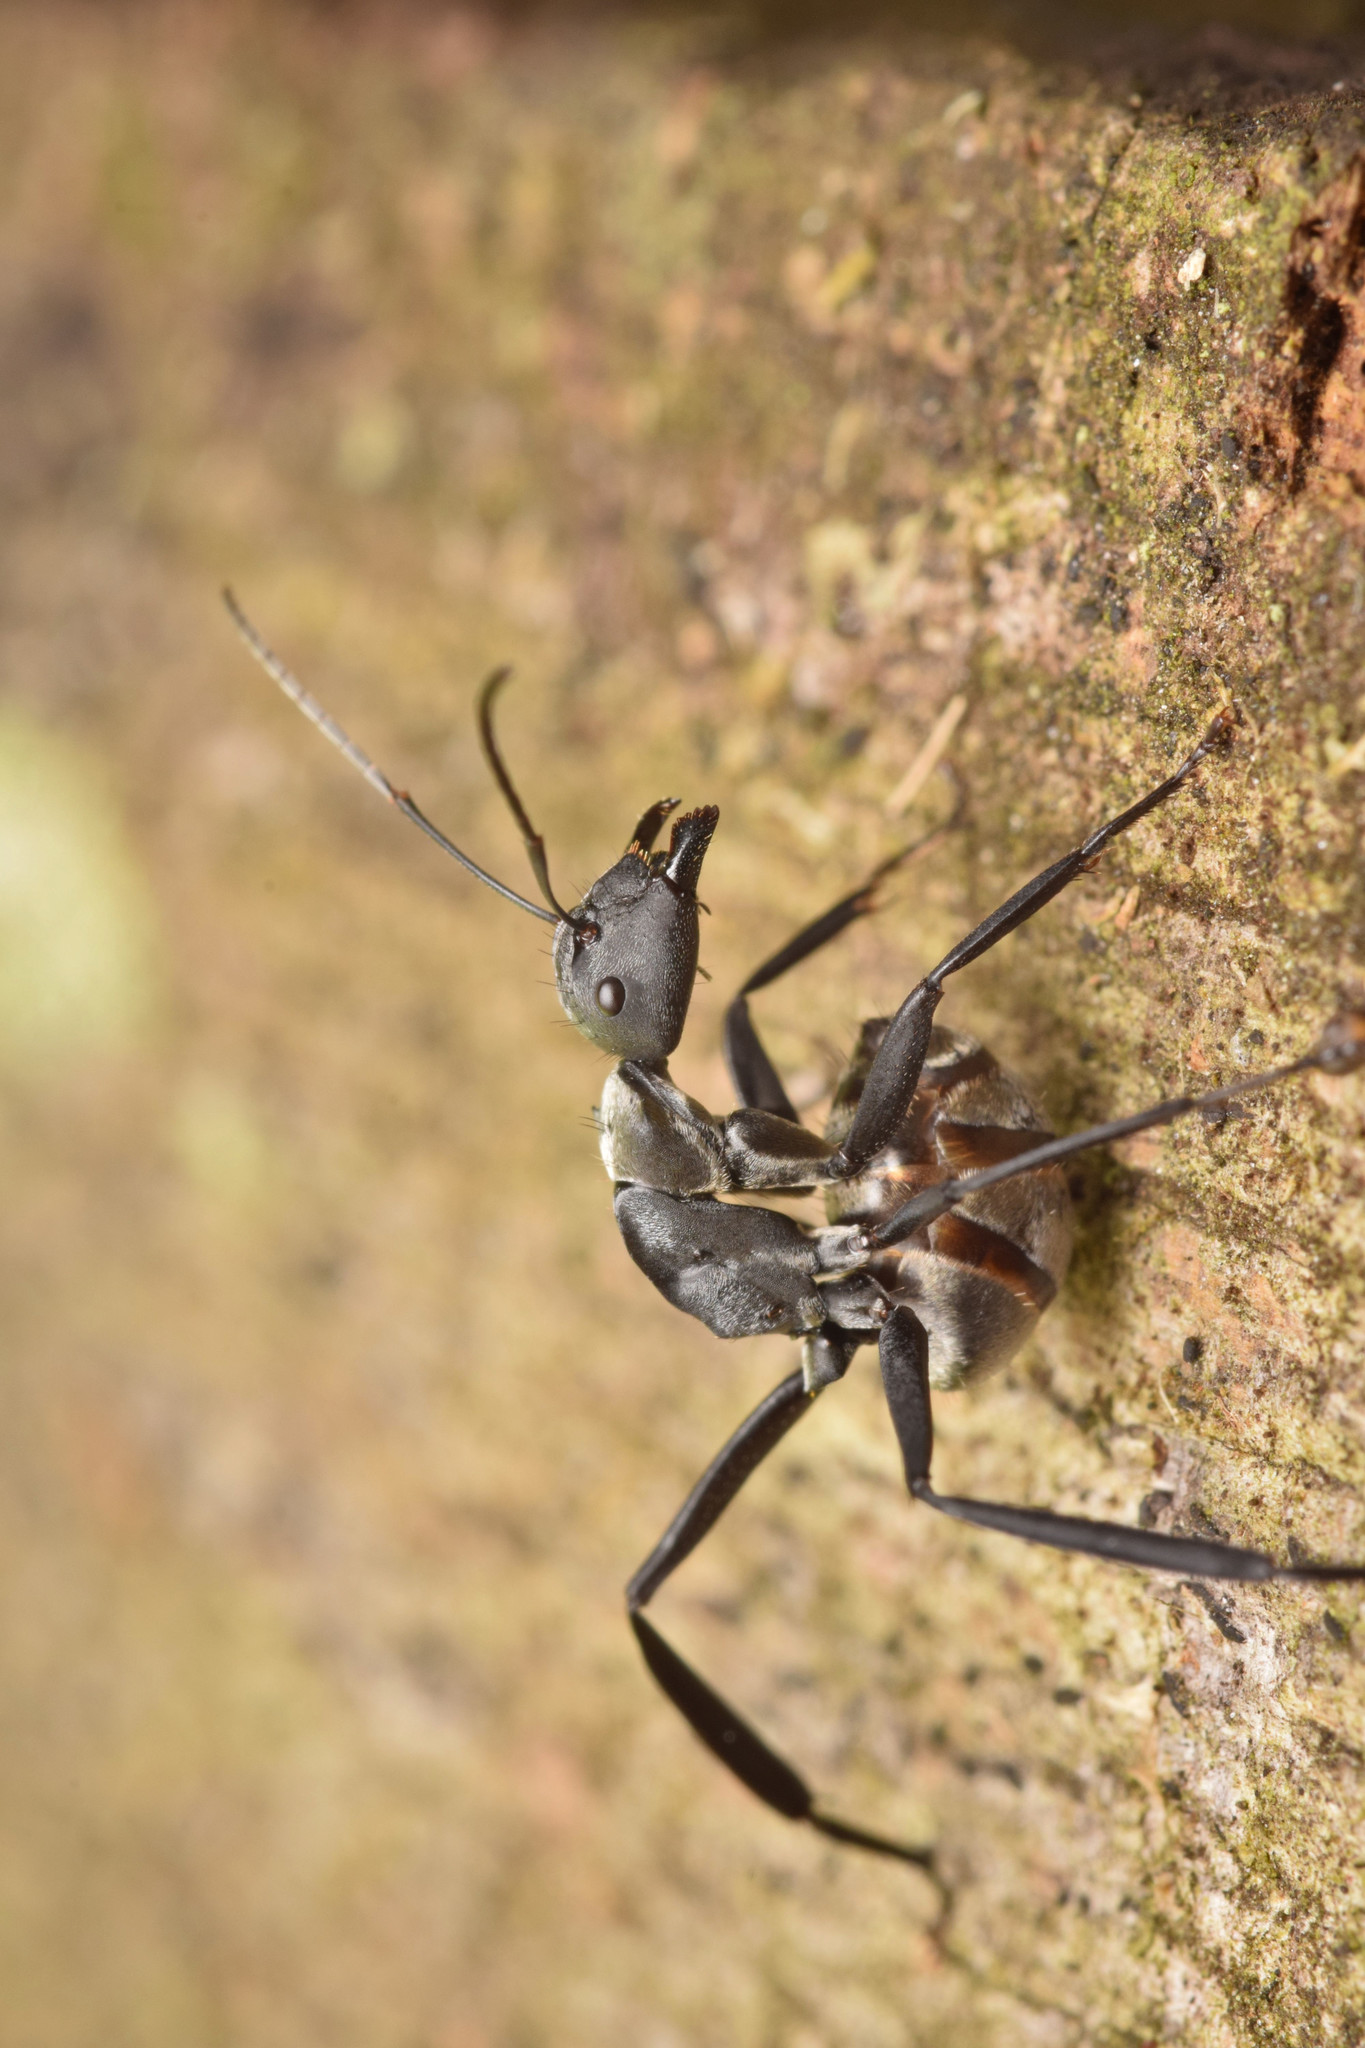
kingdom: Animalia
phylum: Arthropoda
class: Insecta
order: Hymenoptera
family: Formicidae
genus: Camponotus
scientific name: Camponotus sericeiventris
